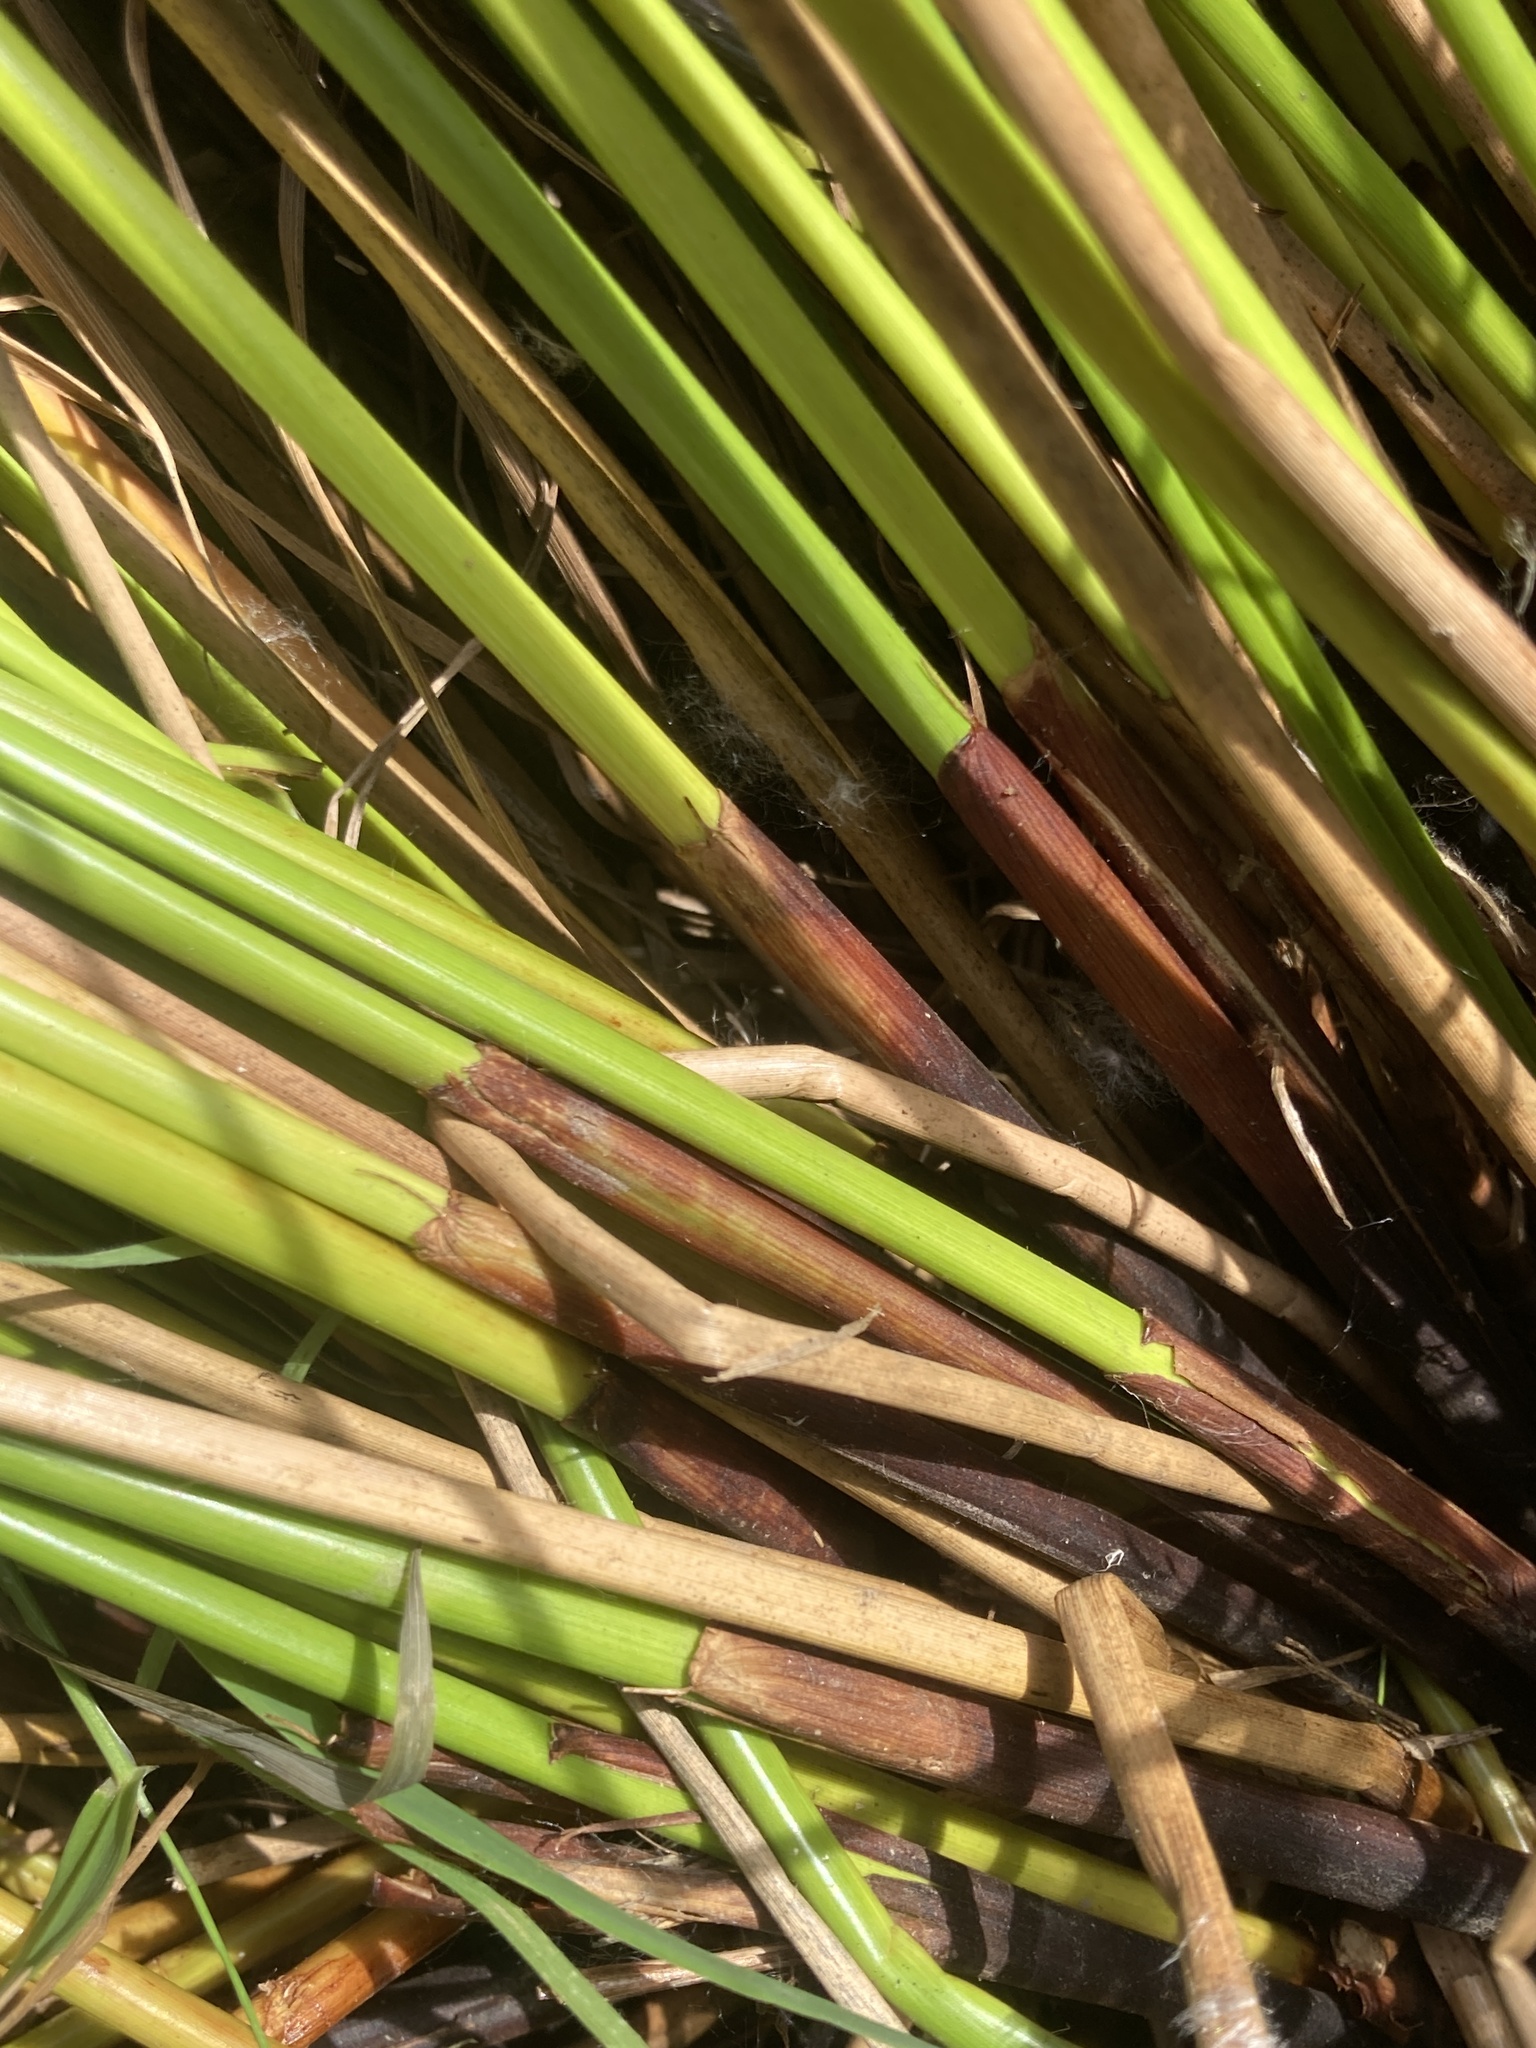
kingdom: Plantae
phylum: Tracheophyta
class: Liliopsida
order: Poales
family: Juncaceae
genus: Juncus
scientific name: Juncus effusus
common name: Soft rush
